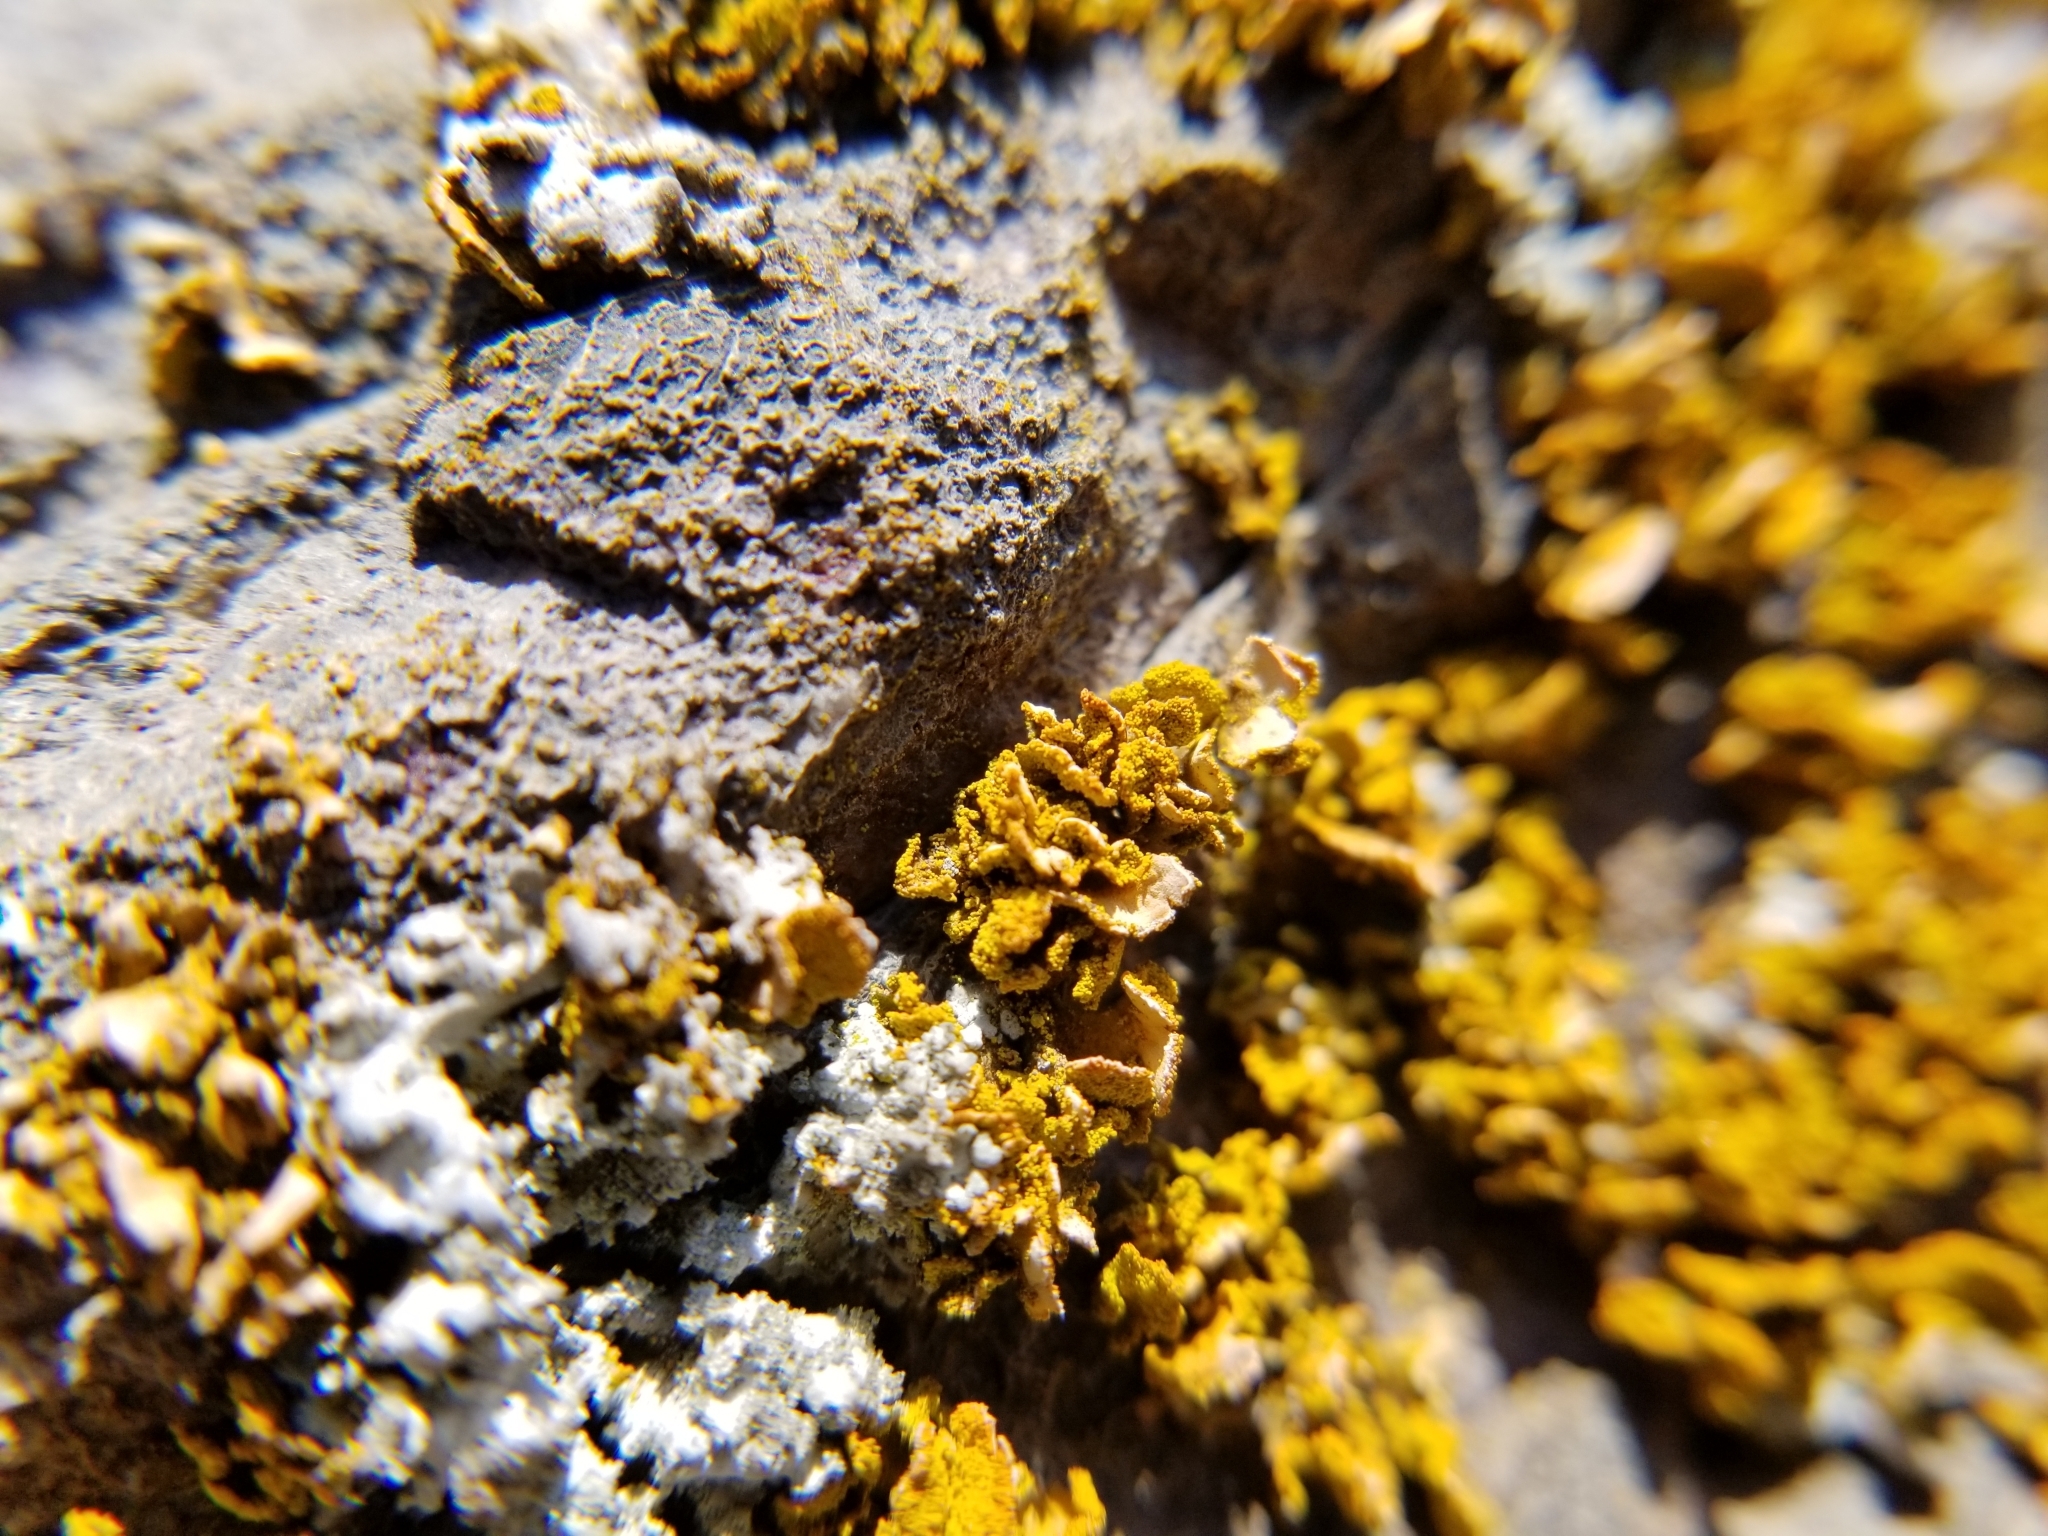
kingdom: Fungi
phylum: Ascomycota
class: Lecanoromycetes
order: Teloschistales
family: Teloschistaceae
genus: Xanthomendoza
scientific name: Xanthomendoza oregana
